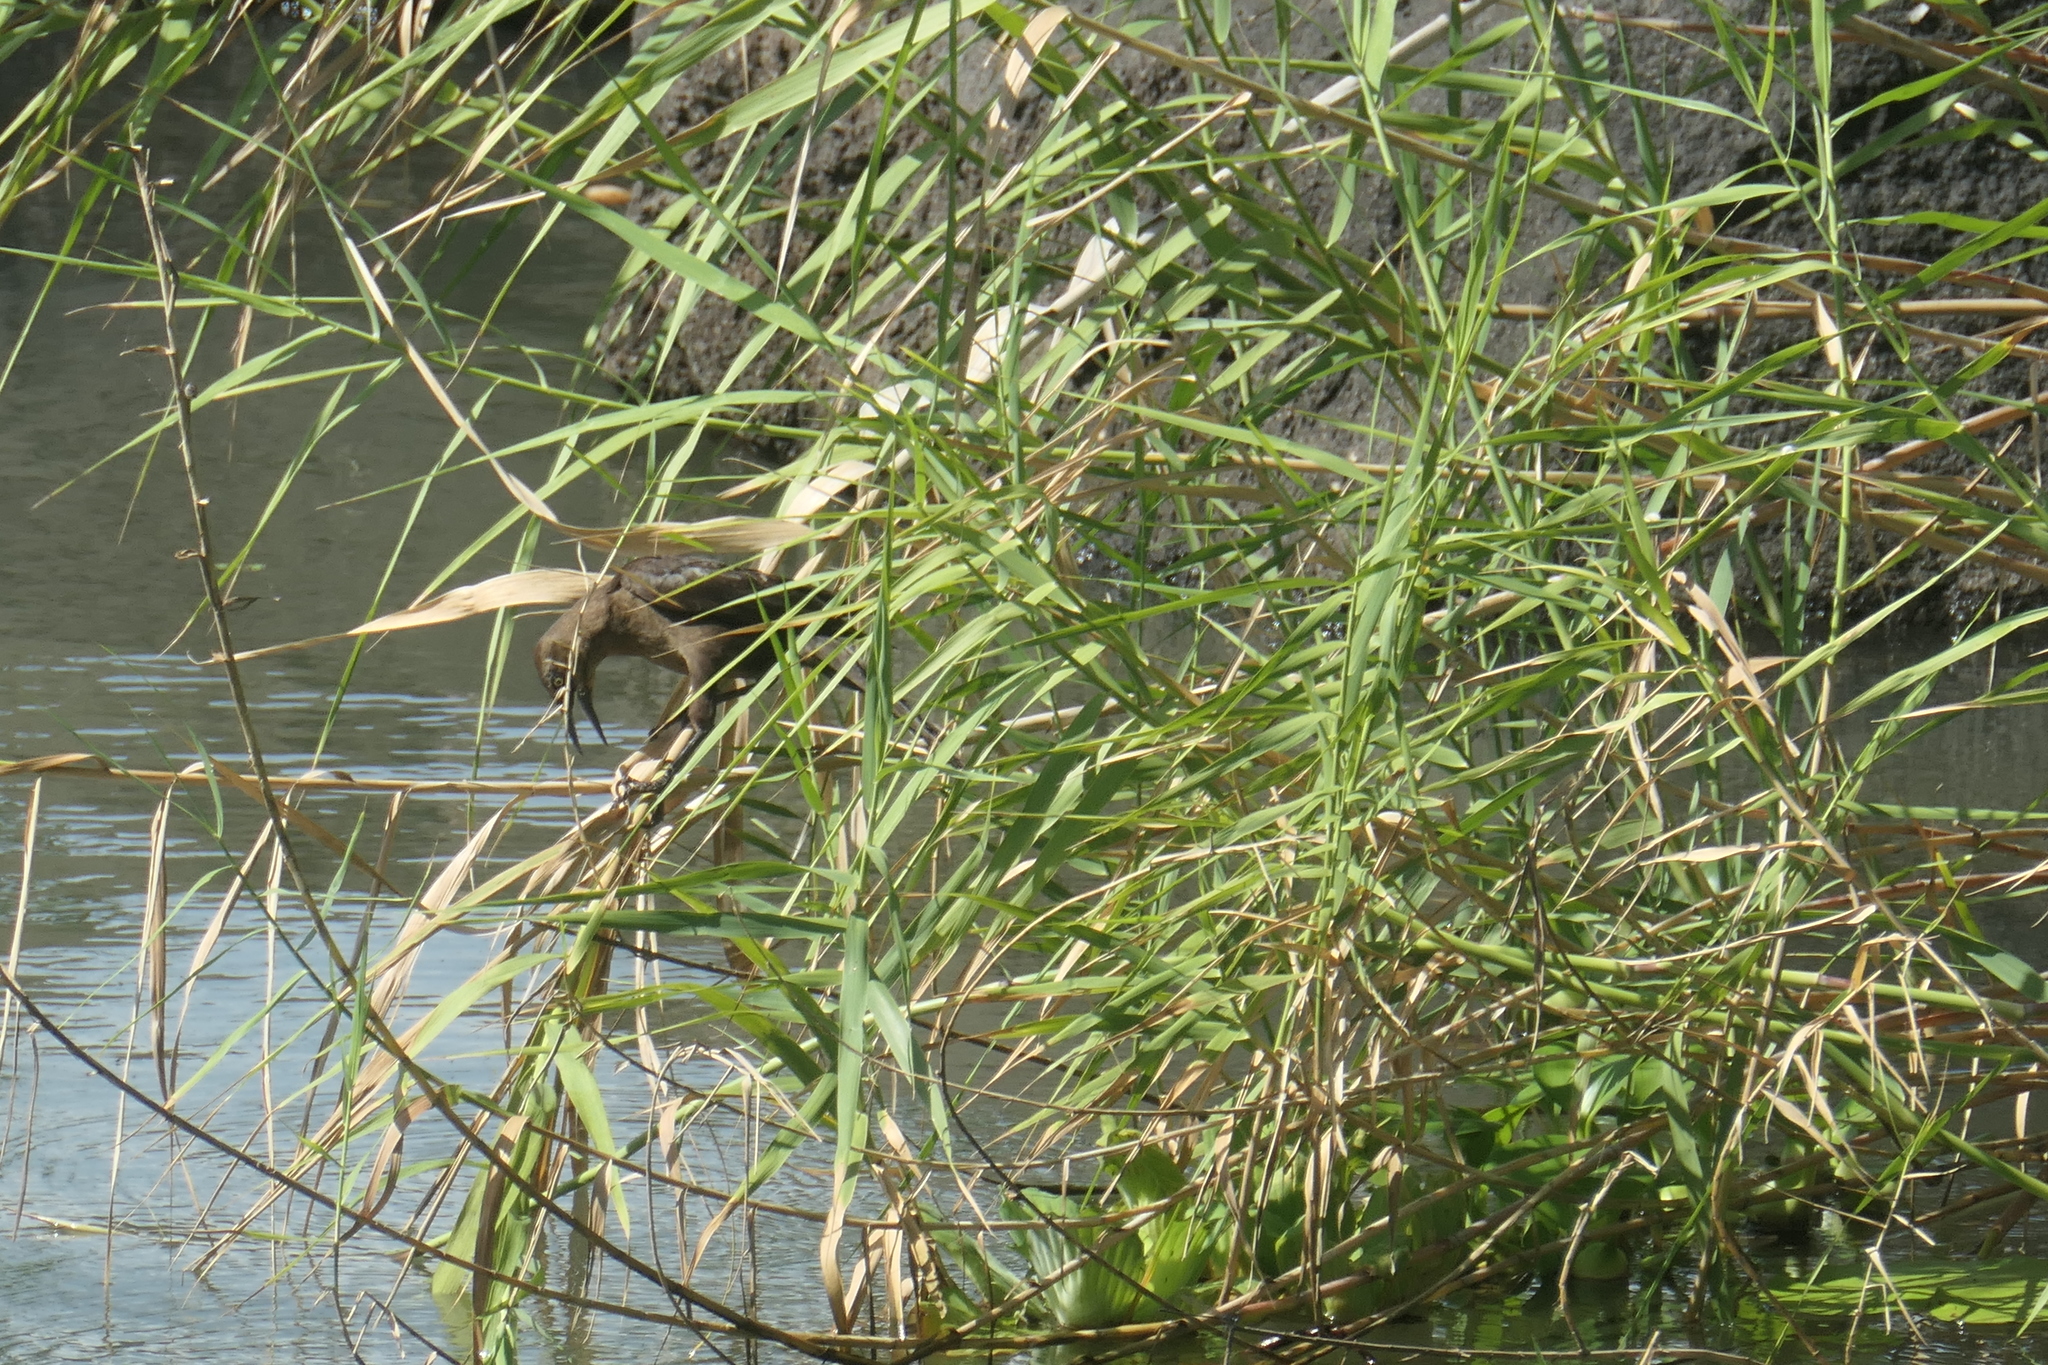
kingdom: Animalia
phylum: Chordata
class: Aves
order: Passeriformes
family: Icteridae
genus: Quiscalus
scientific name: Quiscalus mexicanus
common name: Great-tailed grackle
